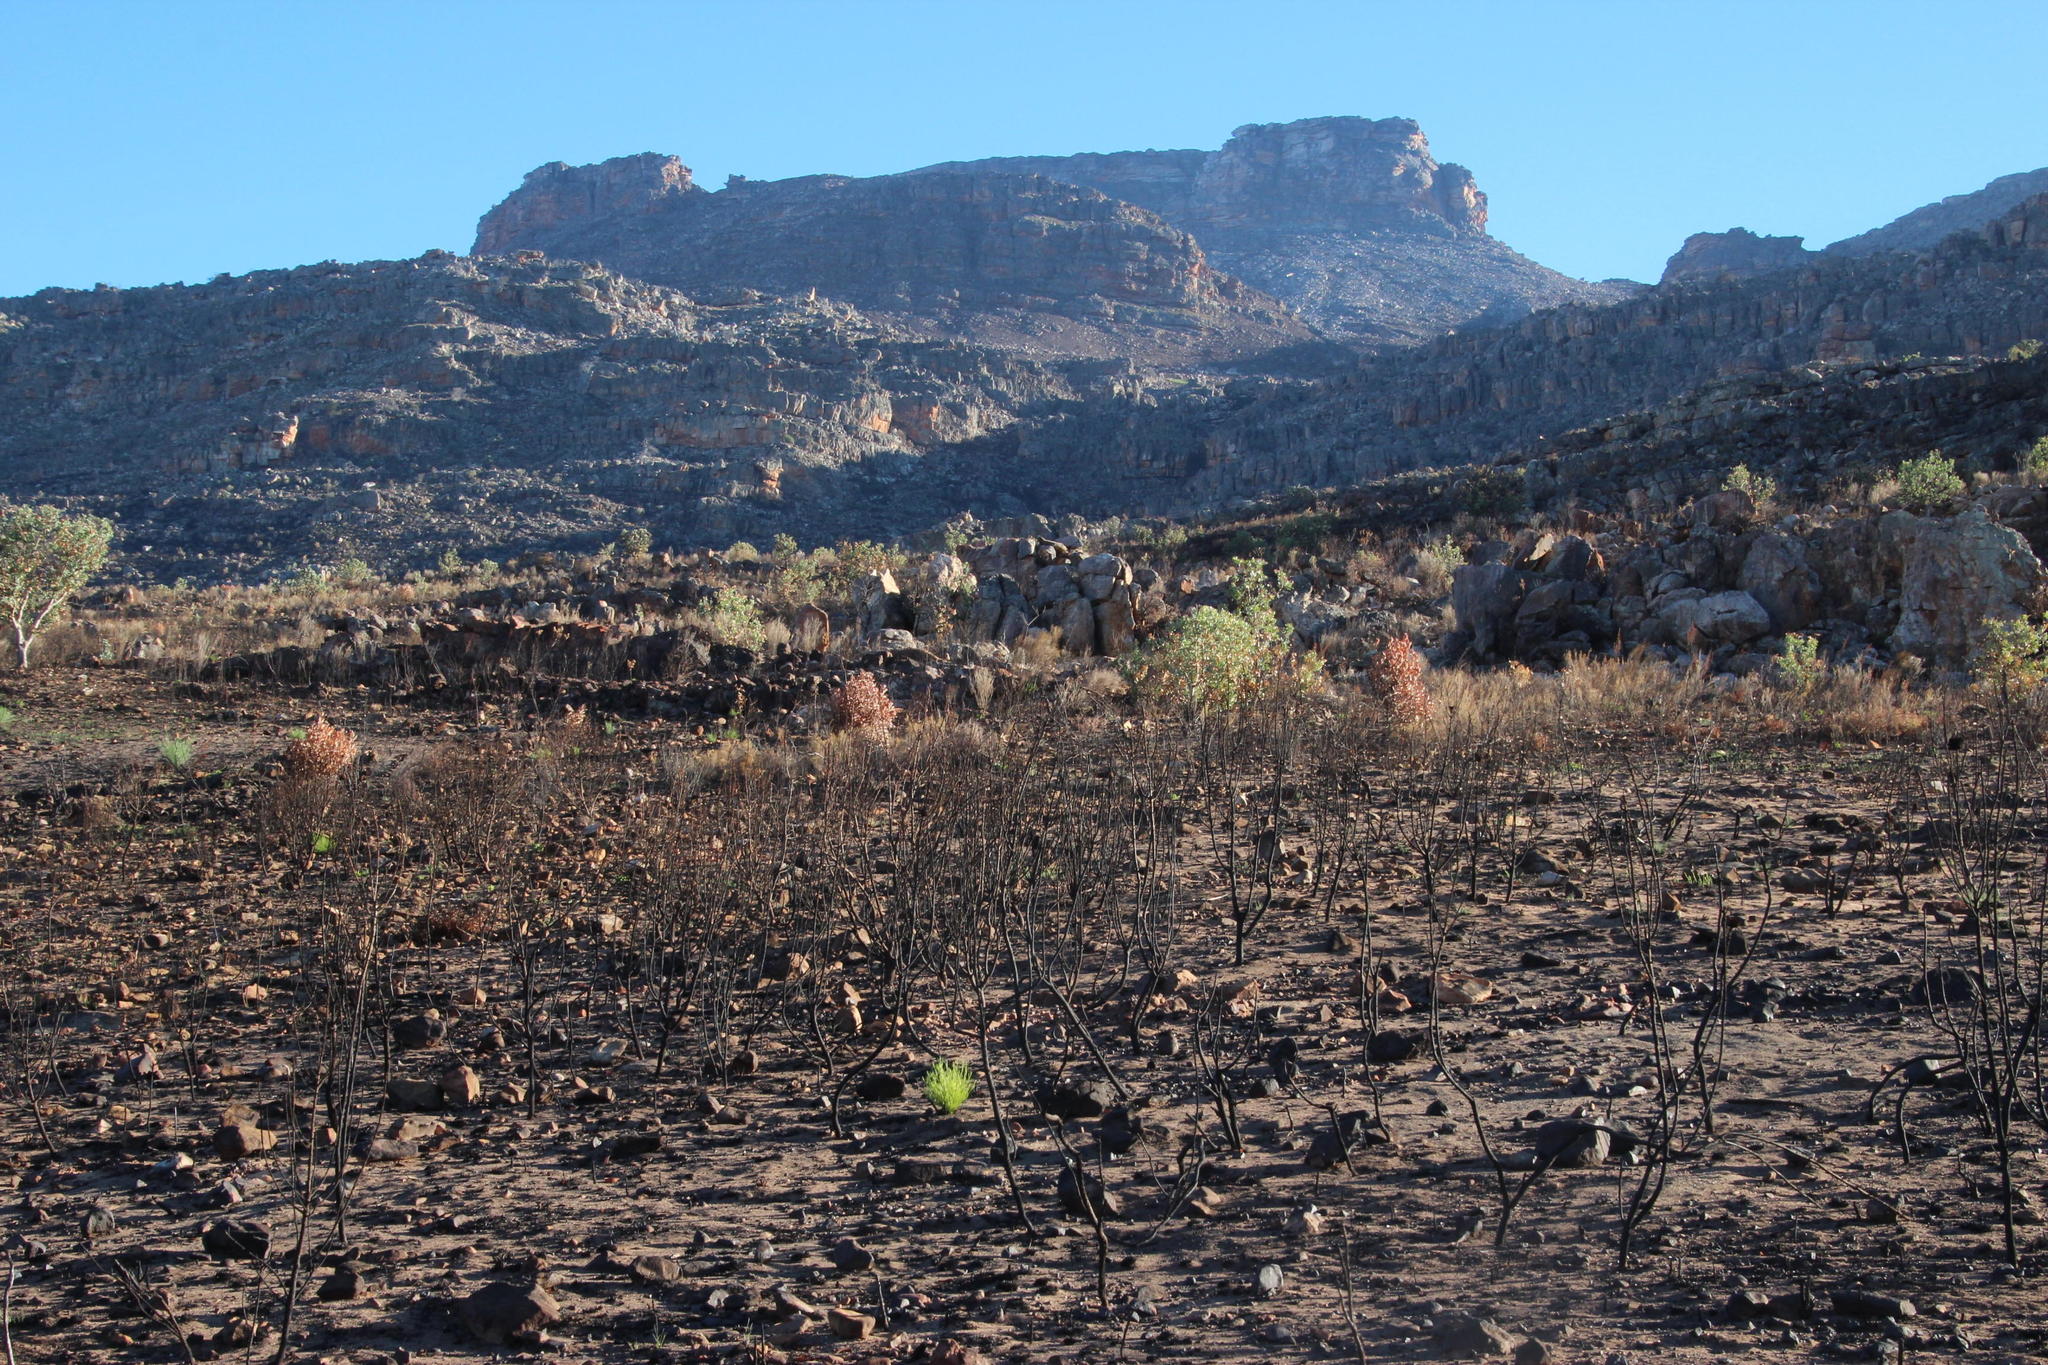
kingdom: Plantae
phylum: Tracheophyta
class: Magnoliopsida
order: Fabales
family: Fabaceae
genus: Psoralea
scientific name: Psoralea
